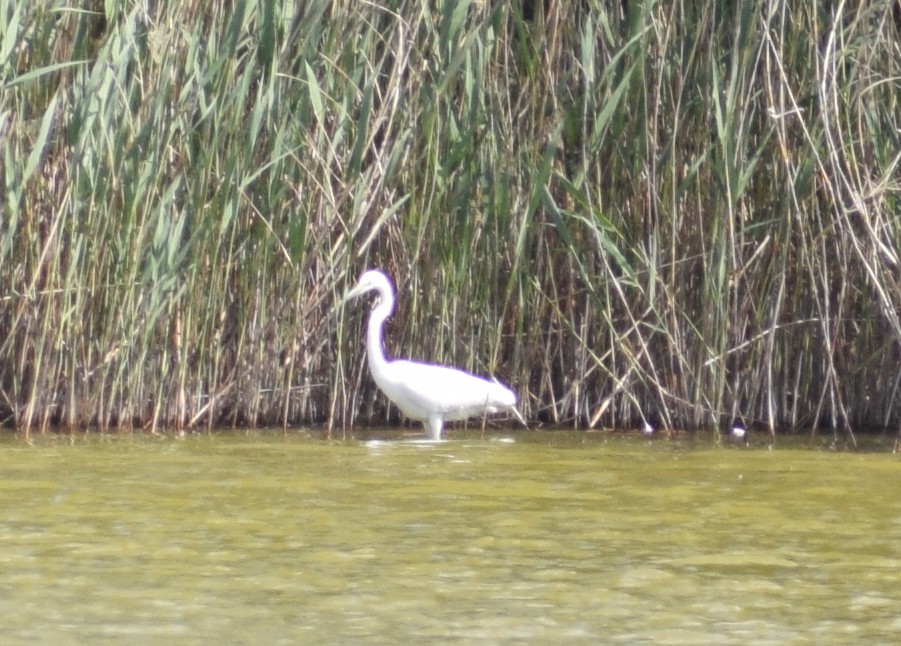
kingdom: Animalia
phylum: Chordata
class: Aves
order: Pelecaniformes
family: Ardeidae
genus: Ardea
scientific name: Ardea alba
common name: Great egret
